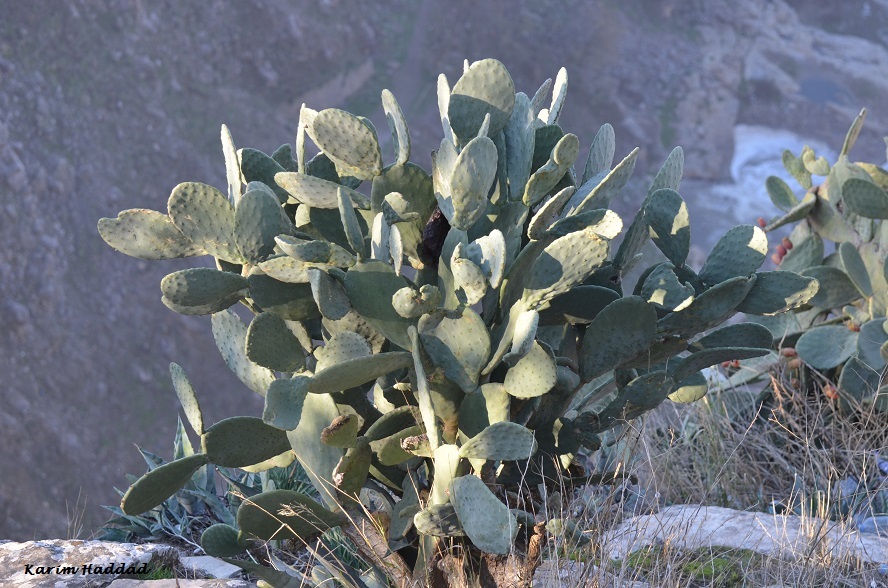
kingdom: Plantae
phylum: Tracheophyta
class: Magnoliopsida
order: Caryophyllales
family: Cactaceae
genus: Opuntia
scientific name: Opuntia ficus-indica
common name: Barbary fig
